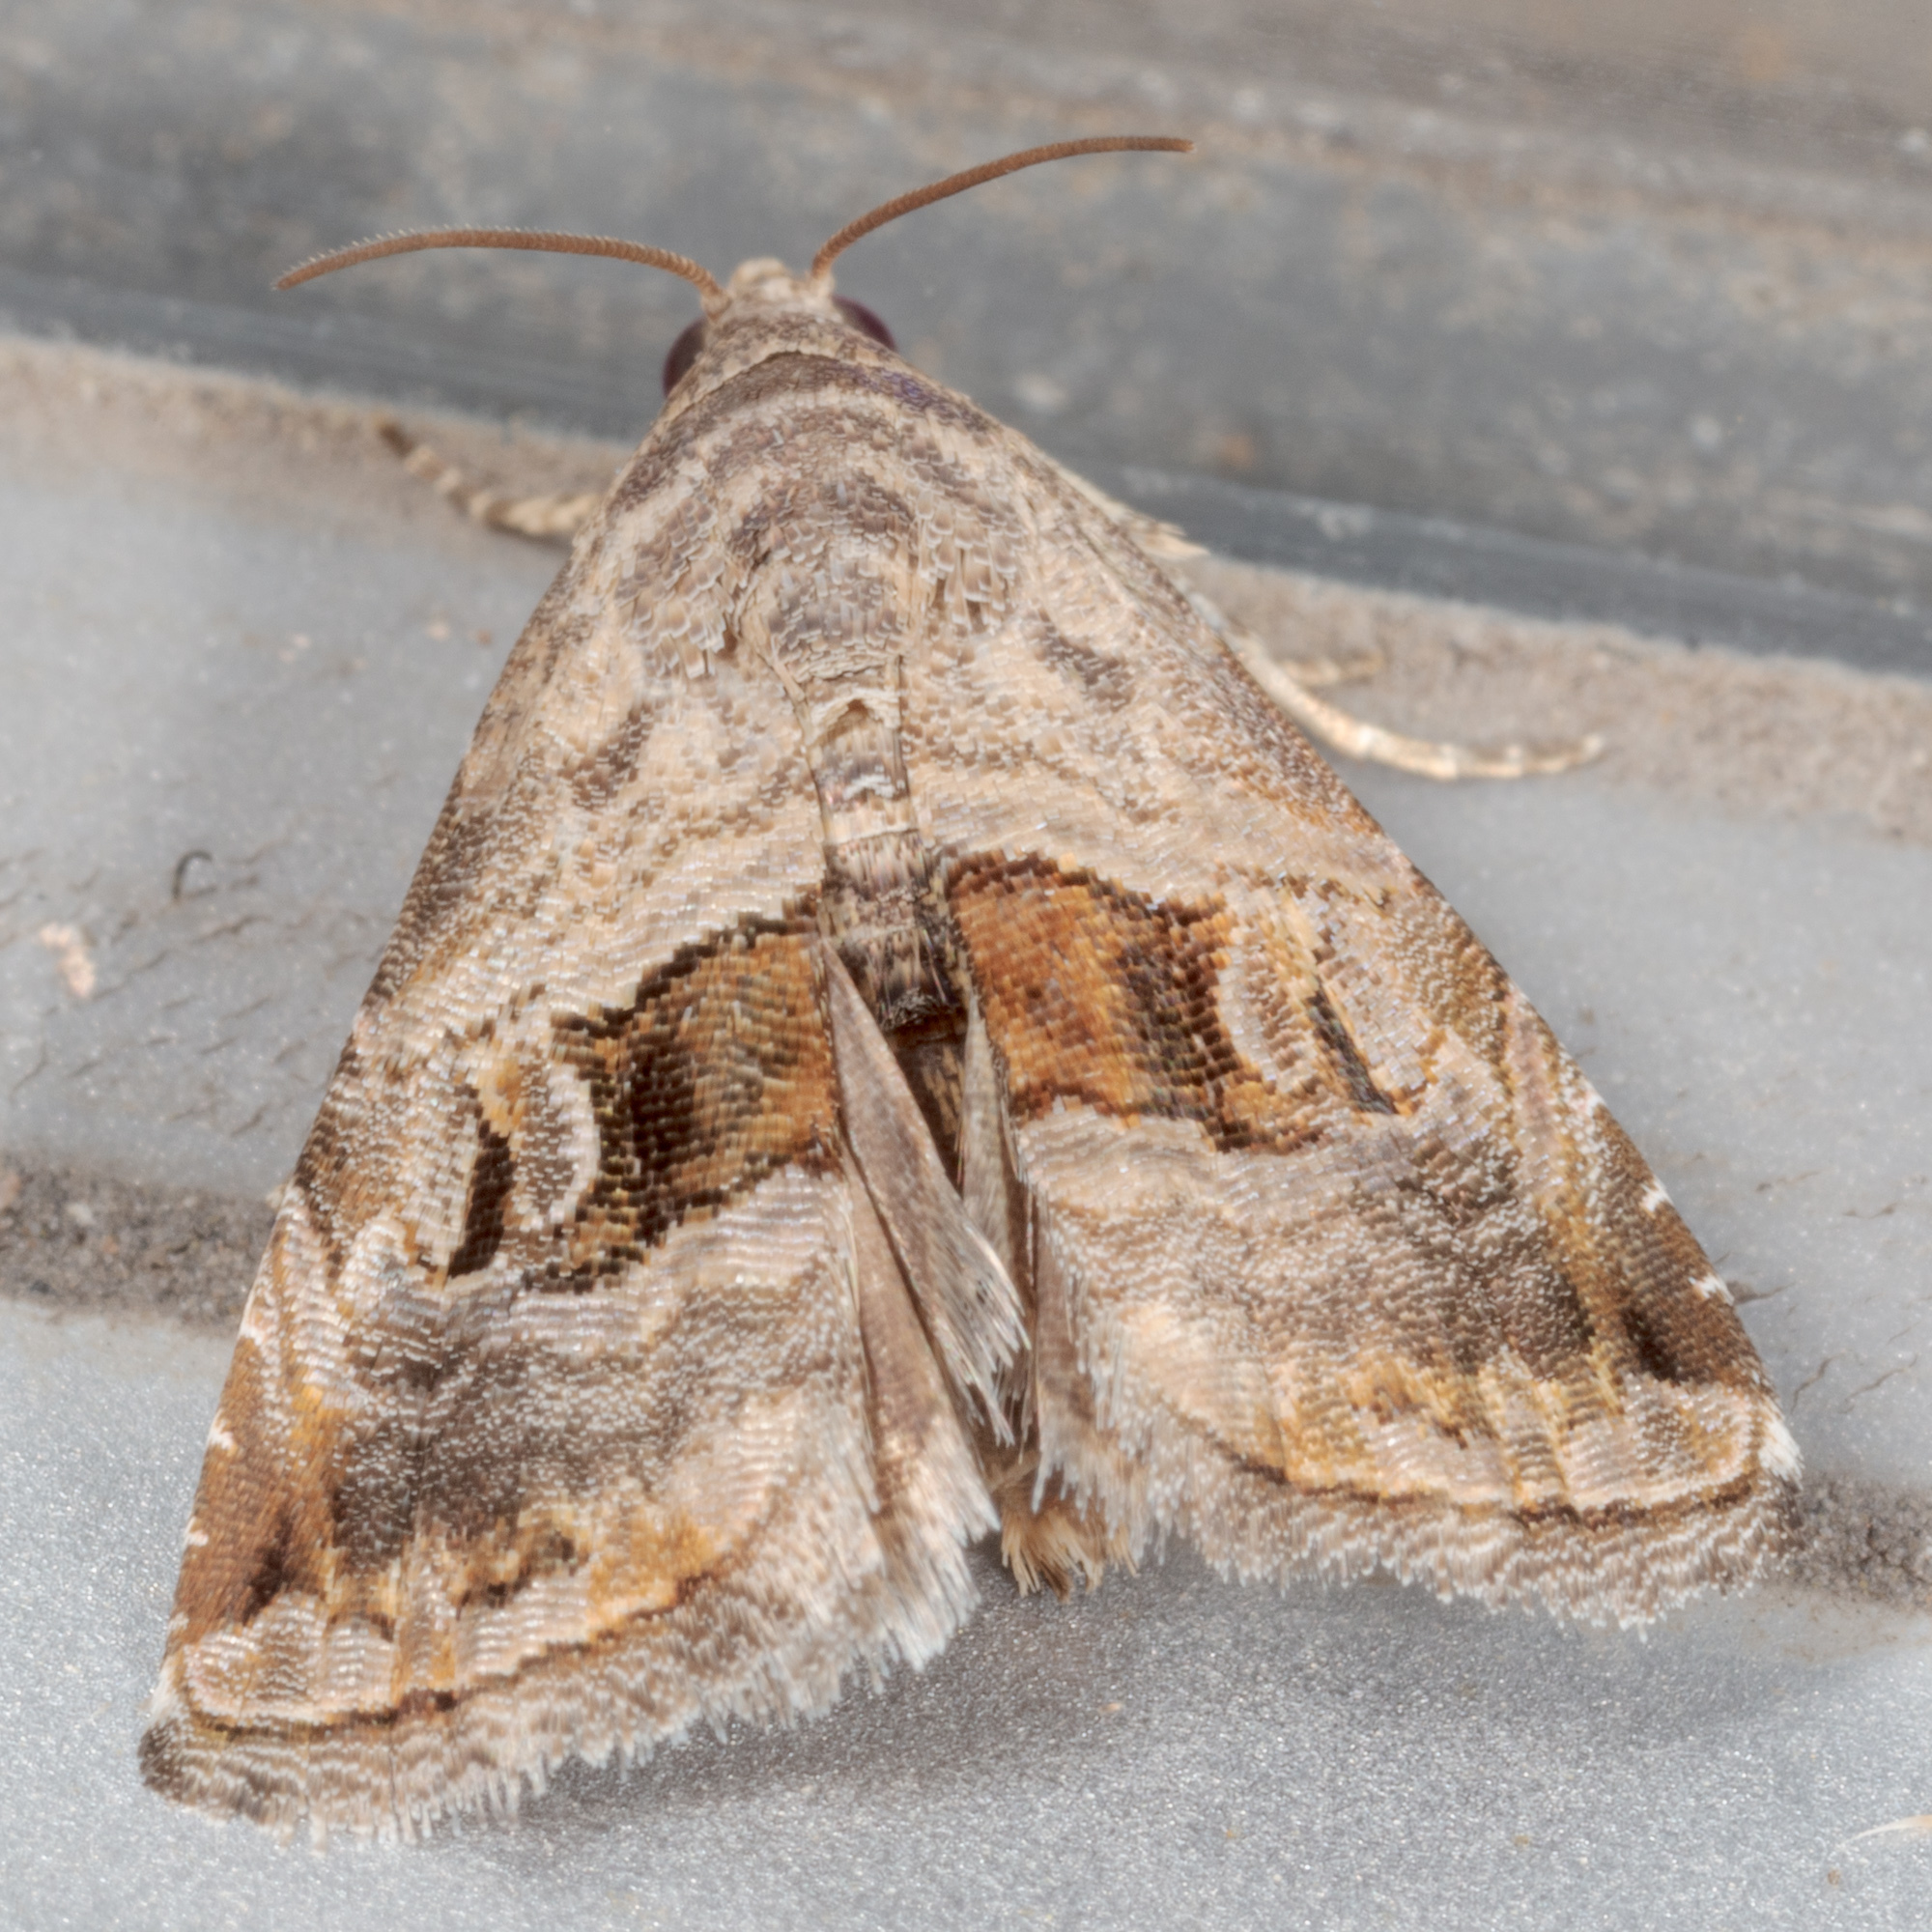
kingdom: Animalia
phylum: Arthropoda
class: Insecta
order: Lepidoptera
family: Noctuidae
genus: Tripudia
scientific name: Tripudia quadrifera
